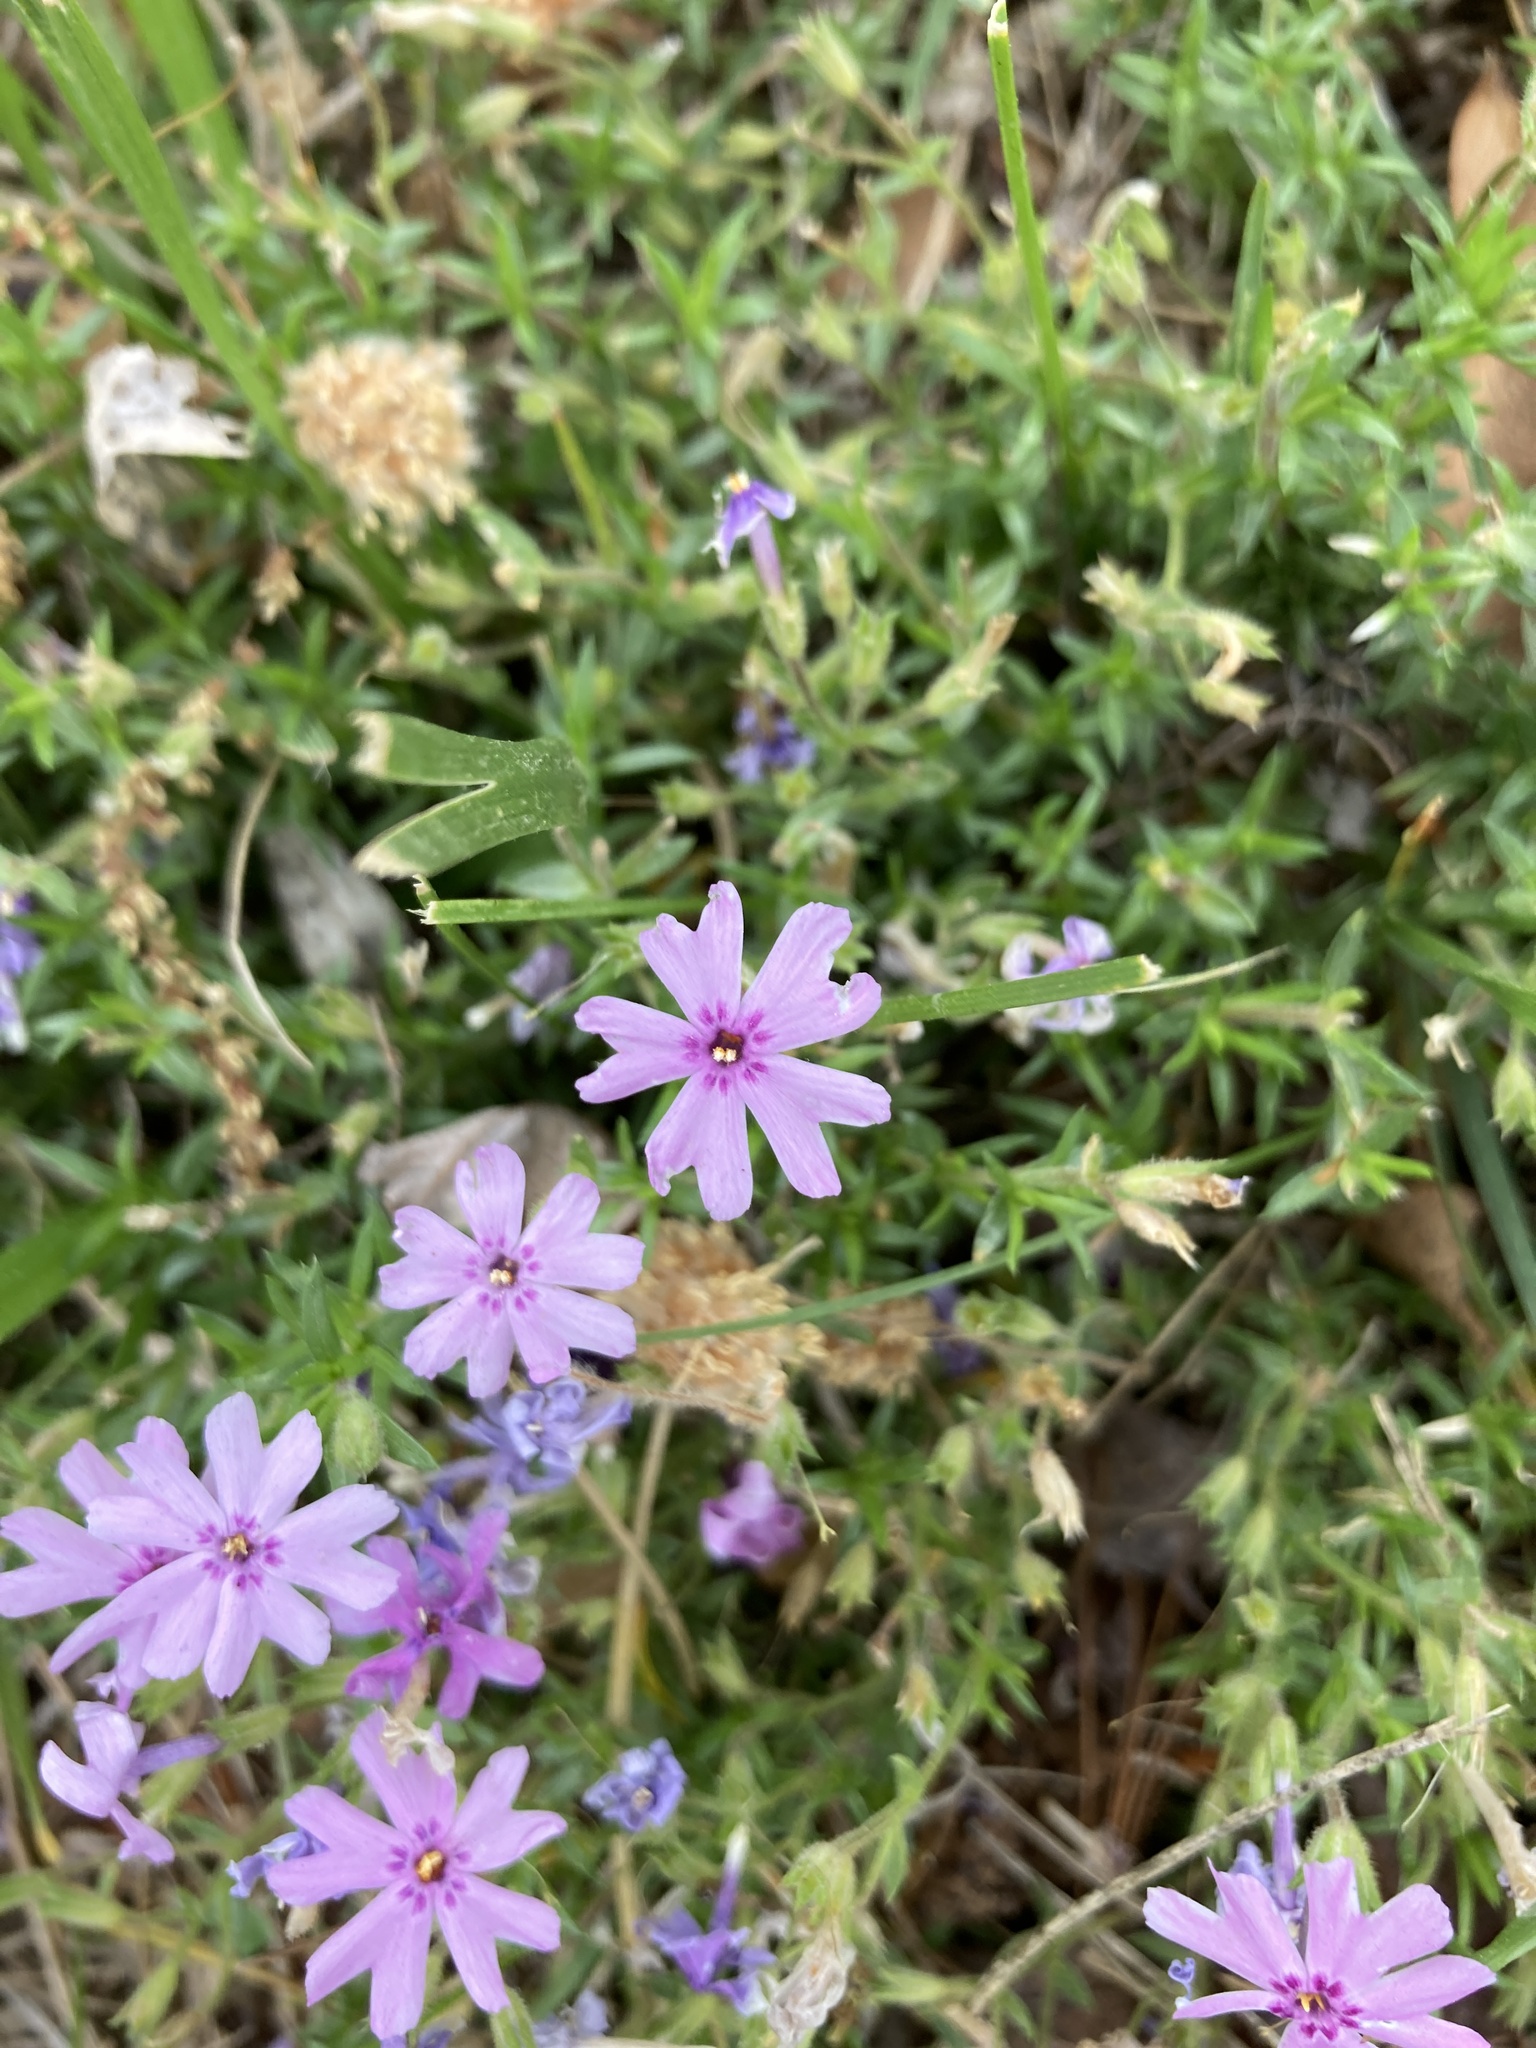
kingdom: Plantae
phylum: Tracheophyta
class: Magnoliopsida
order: Ericales
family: Polemoniaceae
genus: Phlox
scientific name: Phlox subulata
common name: Moss phlox
